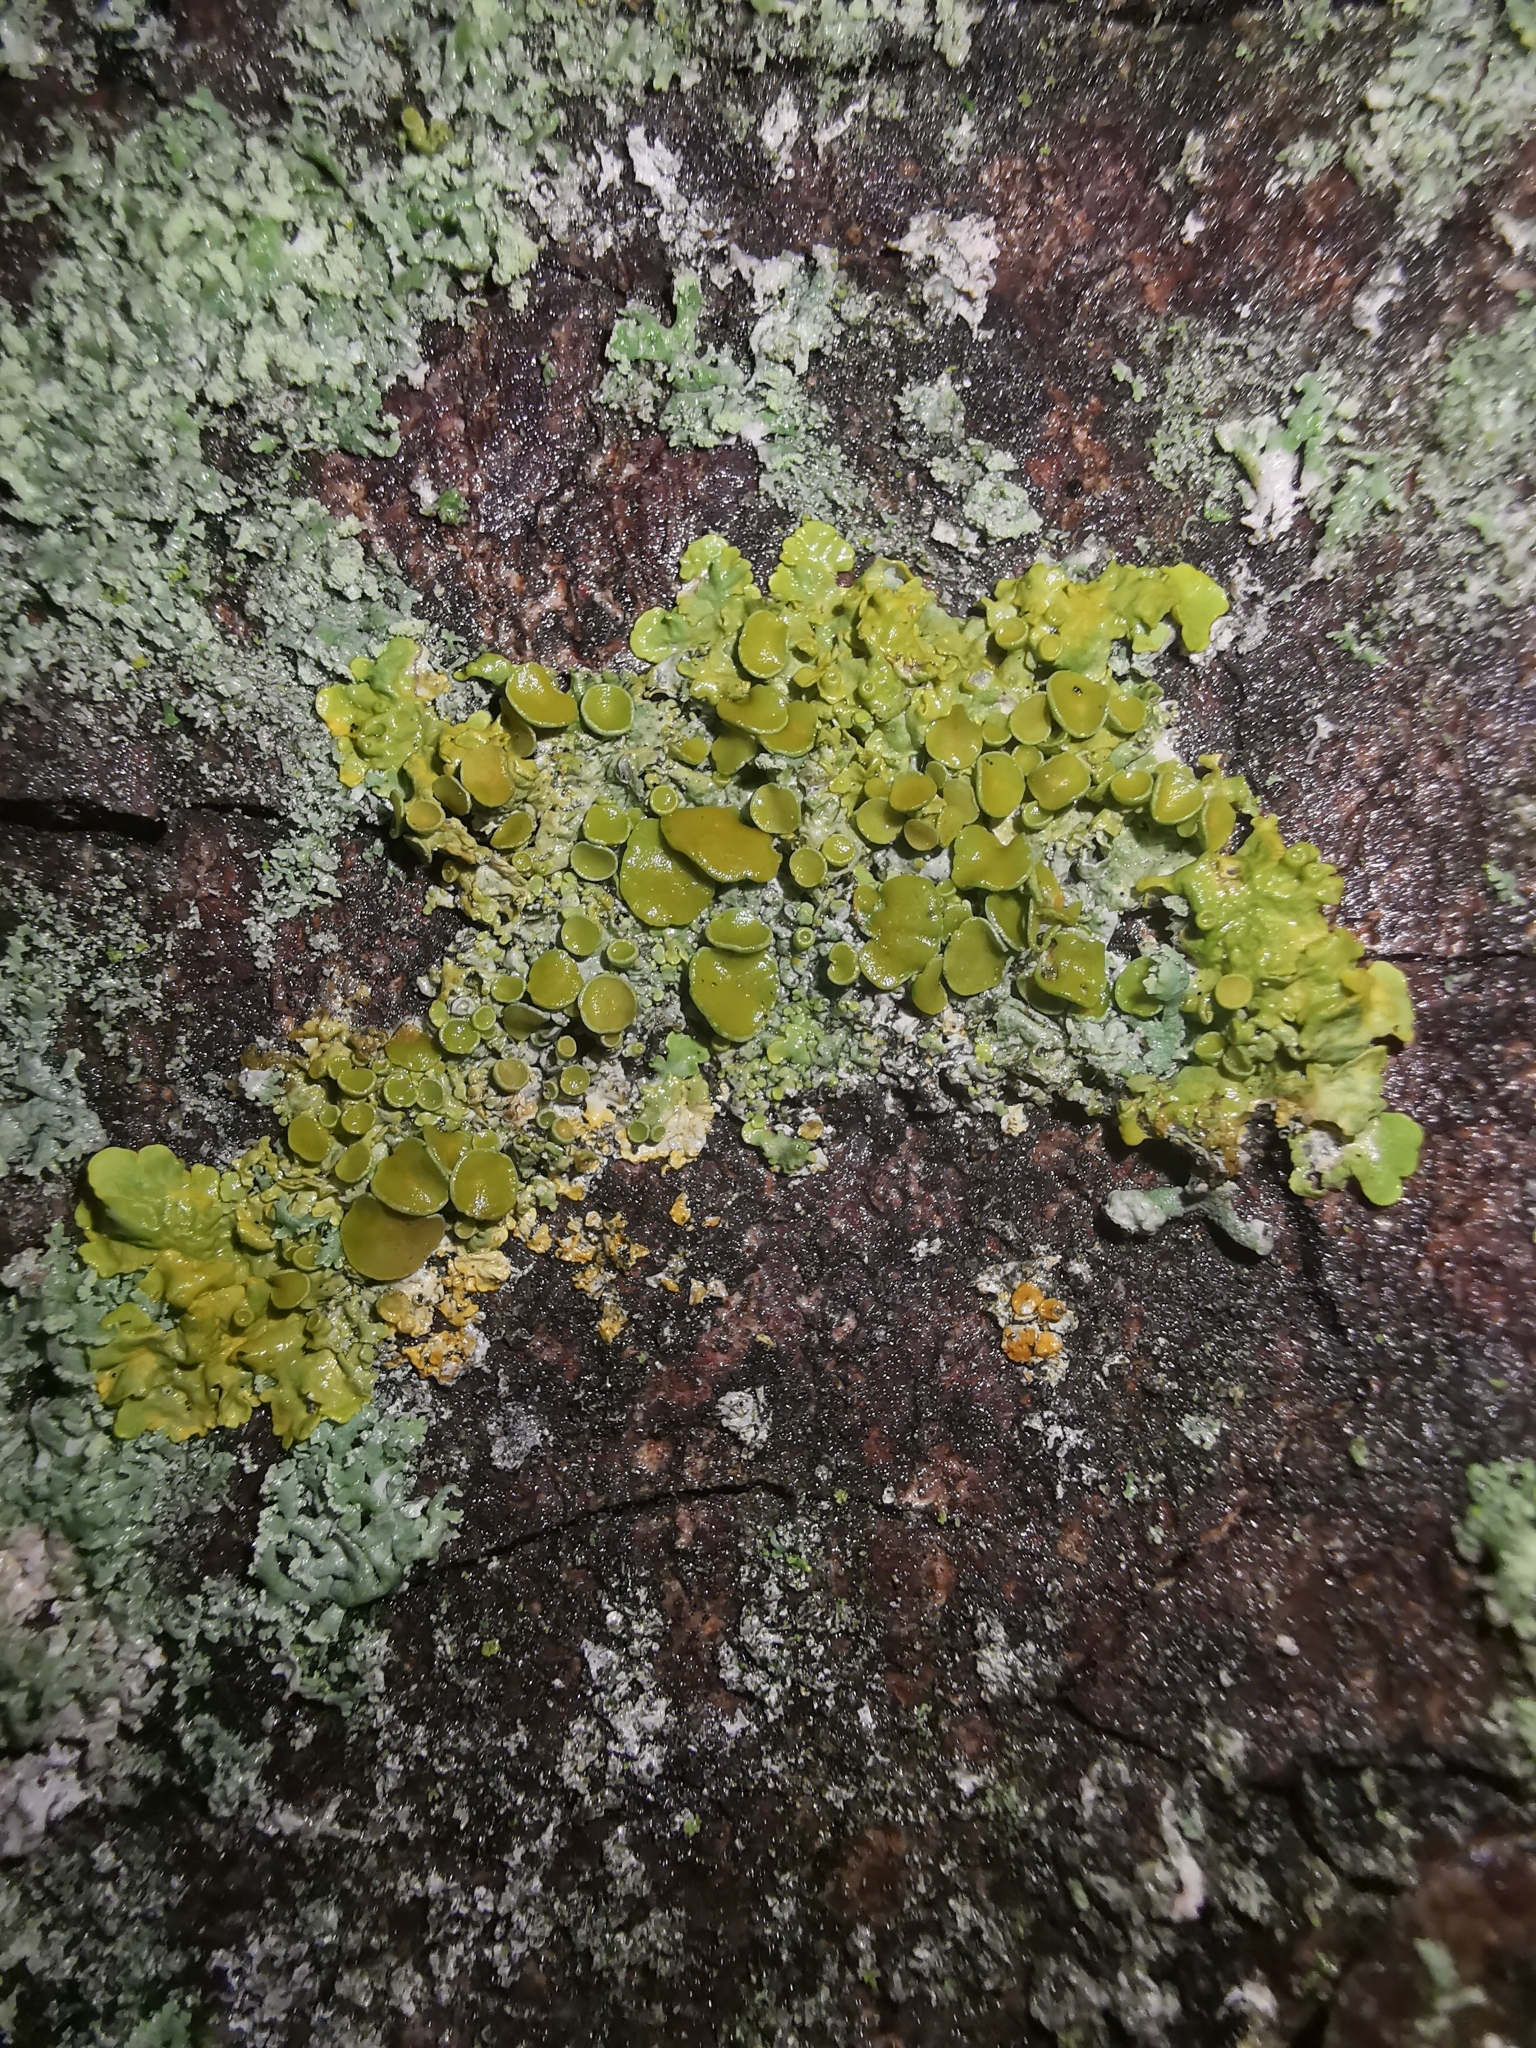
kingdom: Fungi
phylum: Ascomycota
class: Lecanoromycetes
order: Teloschistales
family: Teloschistaceae
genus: Xanthoria
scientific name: Xanthoria parietina
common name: Common orange lichen
